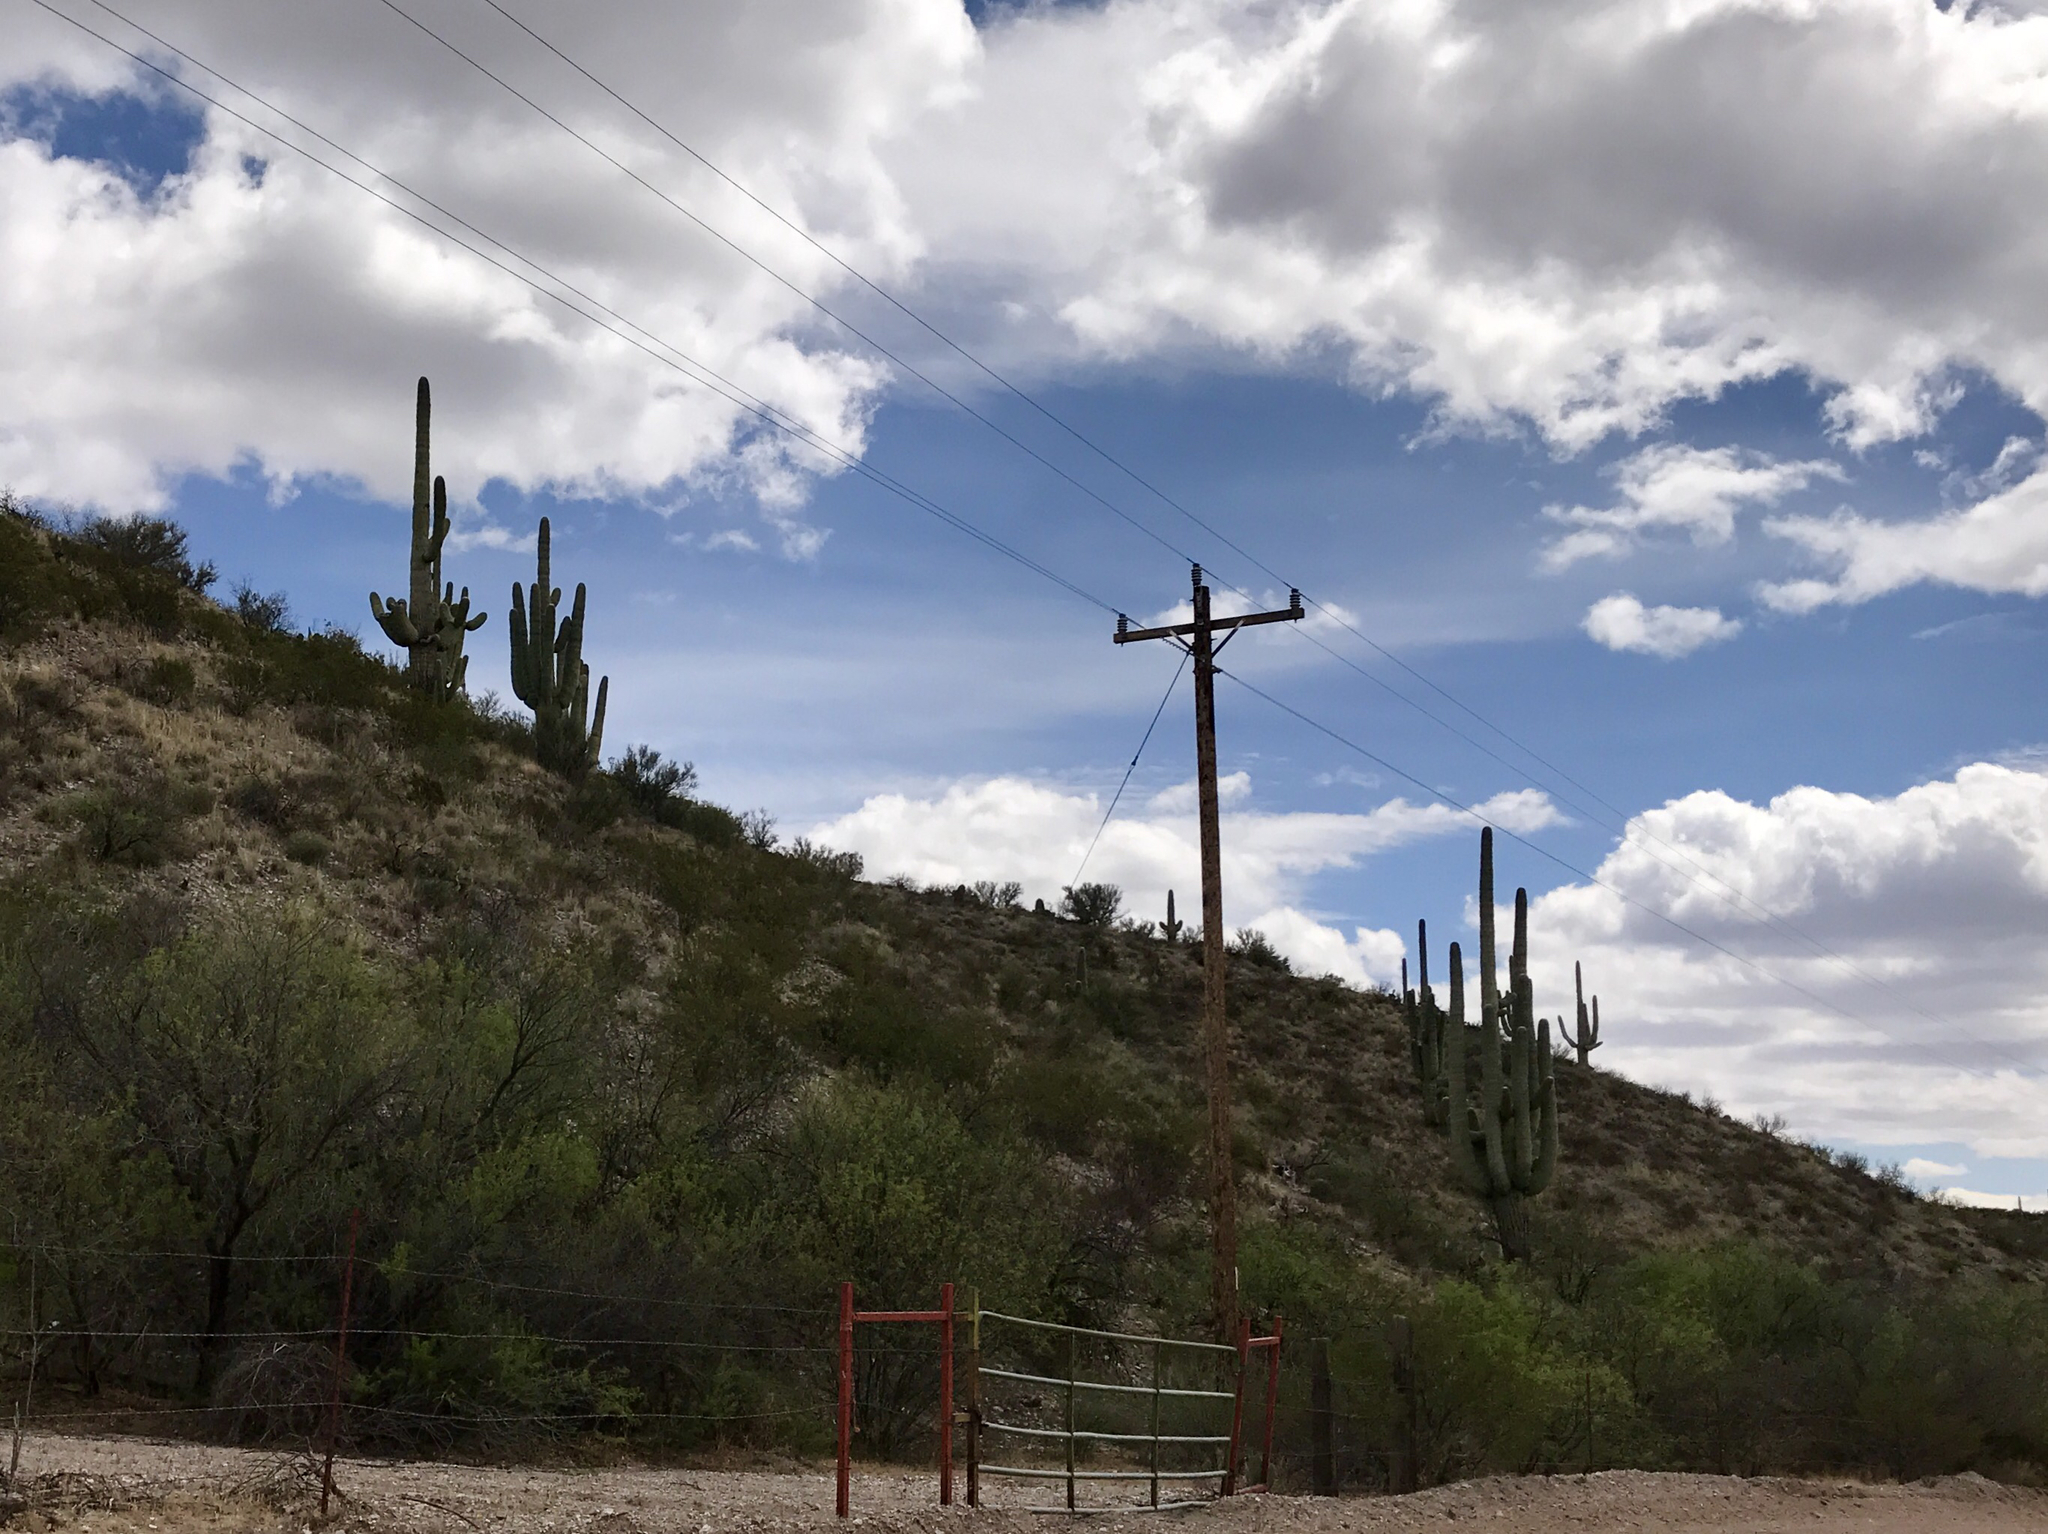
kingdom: Plantae
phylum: Tracheophyta
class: Magnoliopsida
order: Caryophyllales
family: Cactaceae
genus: Carnegiea
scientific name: Carnegiea gigantea
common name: Saguaro
